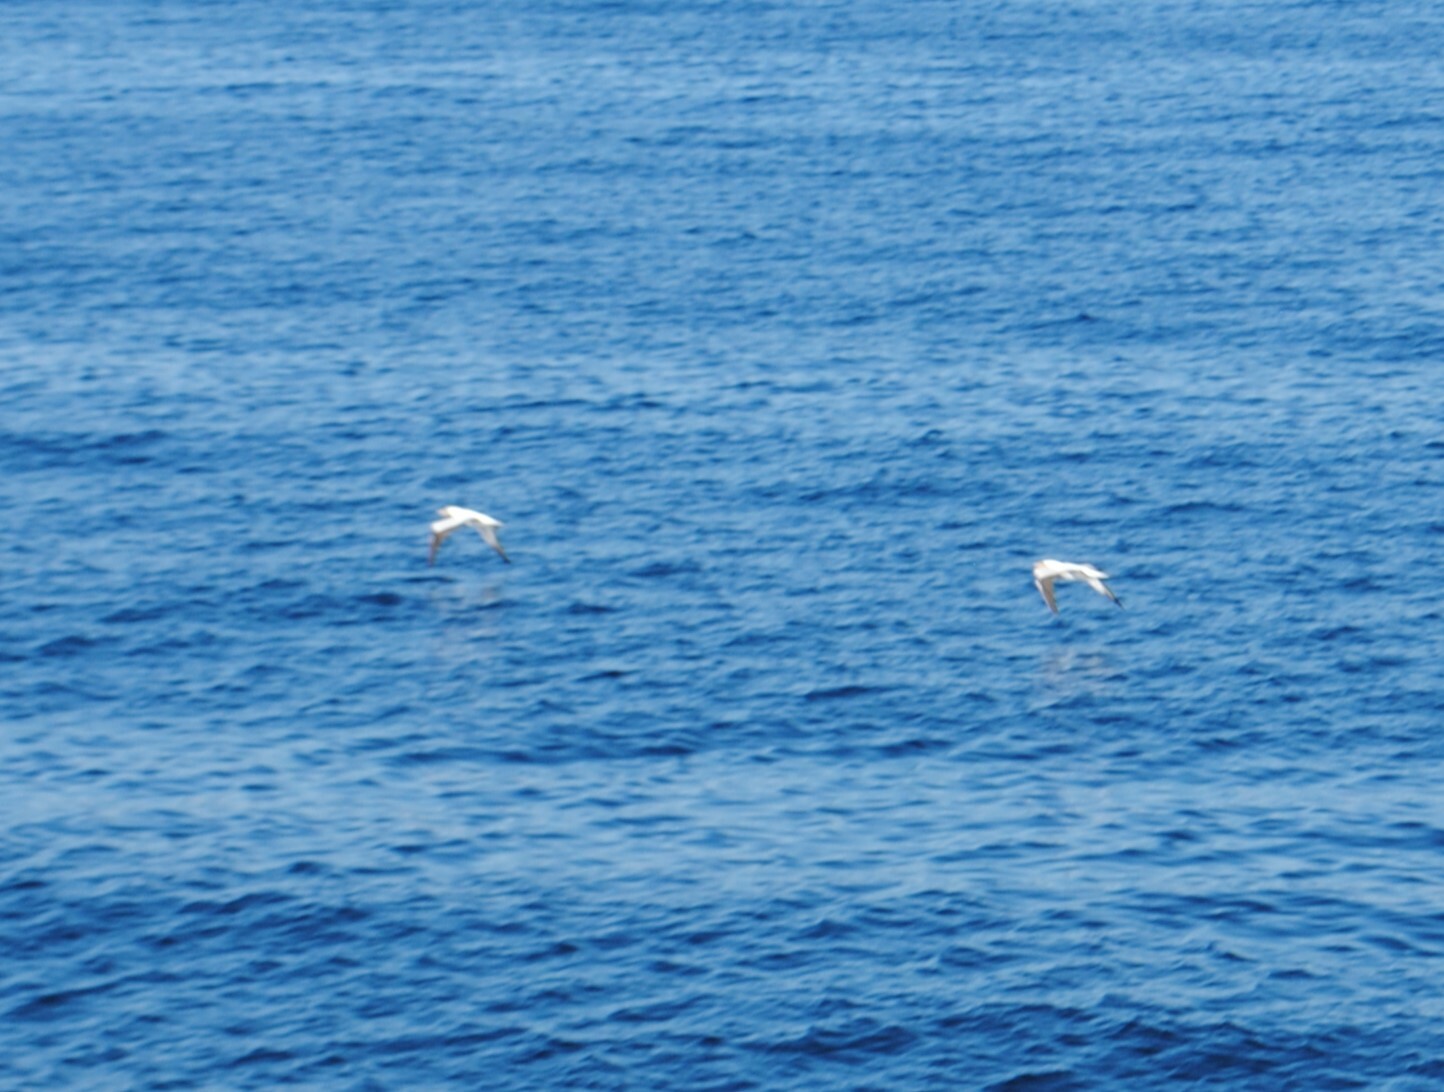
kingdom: Animalia
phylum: Chordata
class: Aves
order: Suliformes
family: Sulidae
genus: Sula
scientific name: Sula granti
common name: Nazca booby
